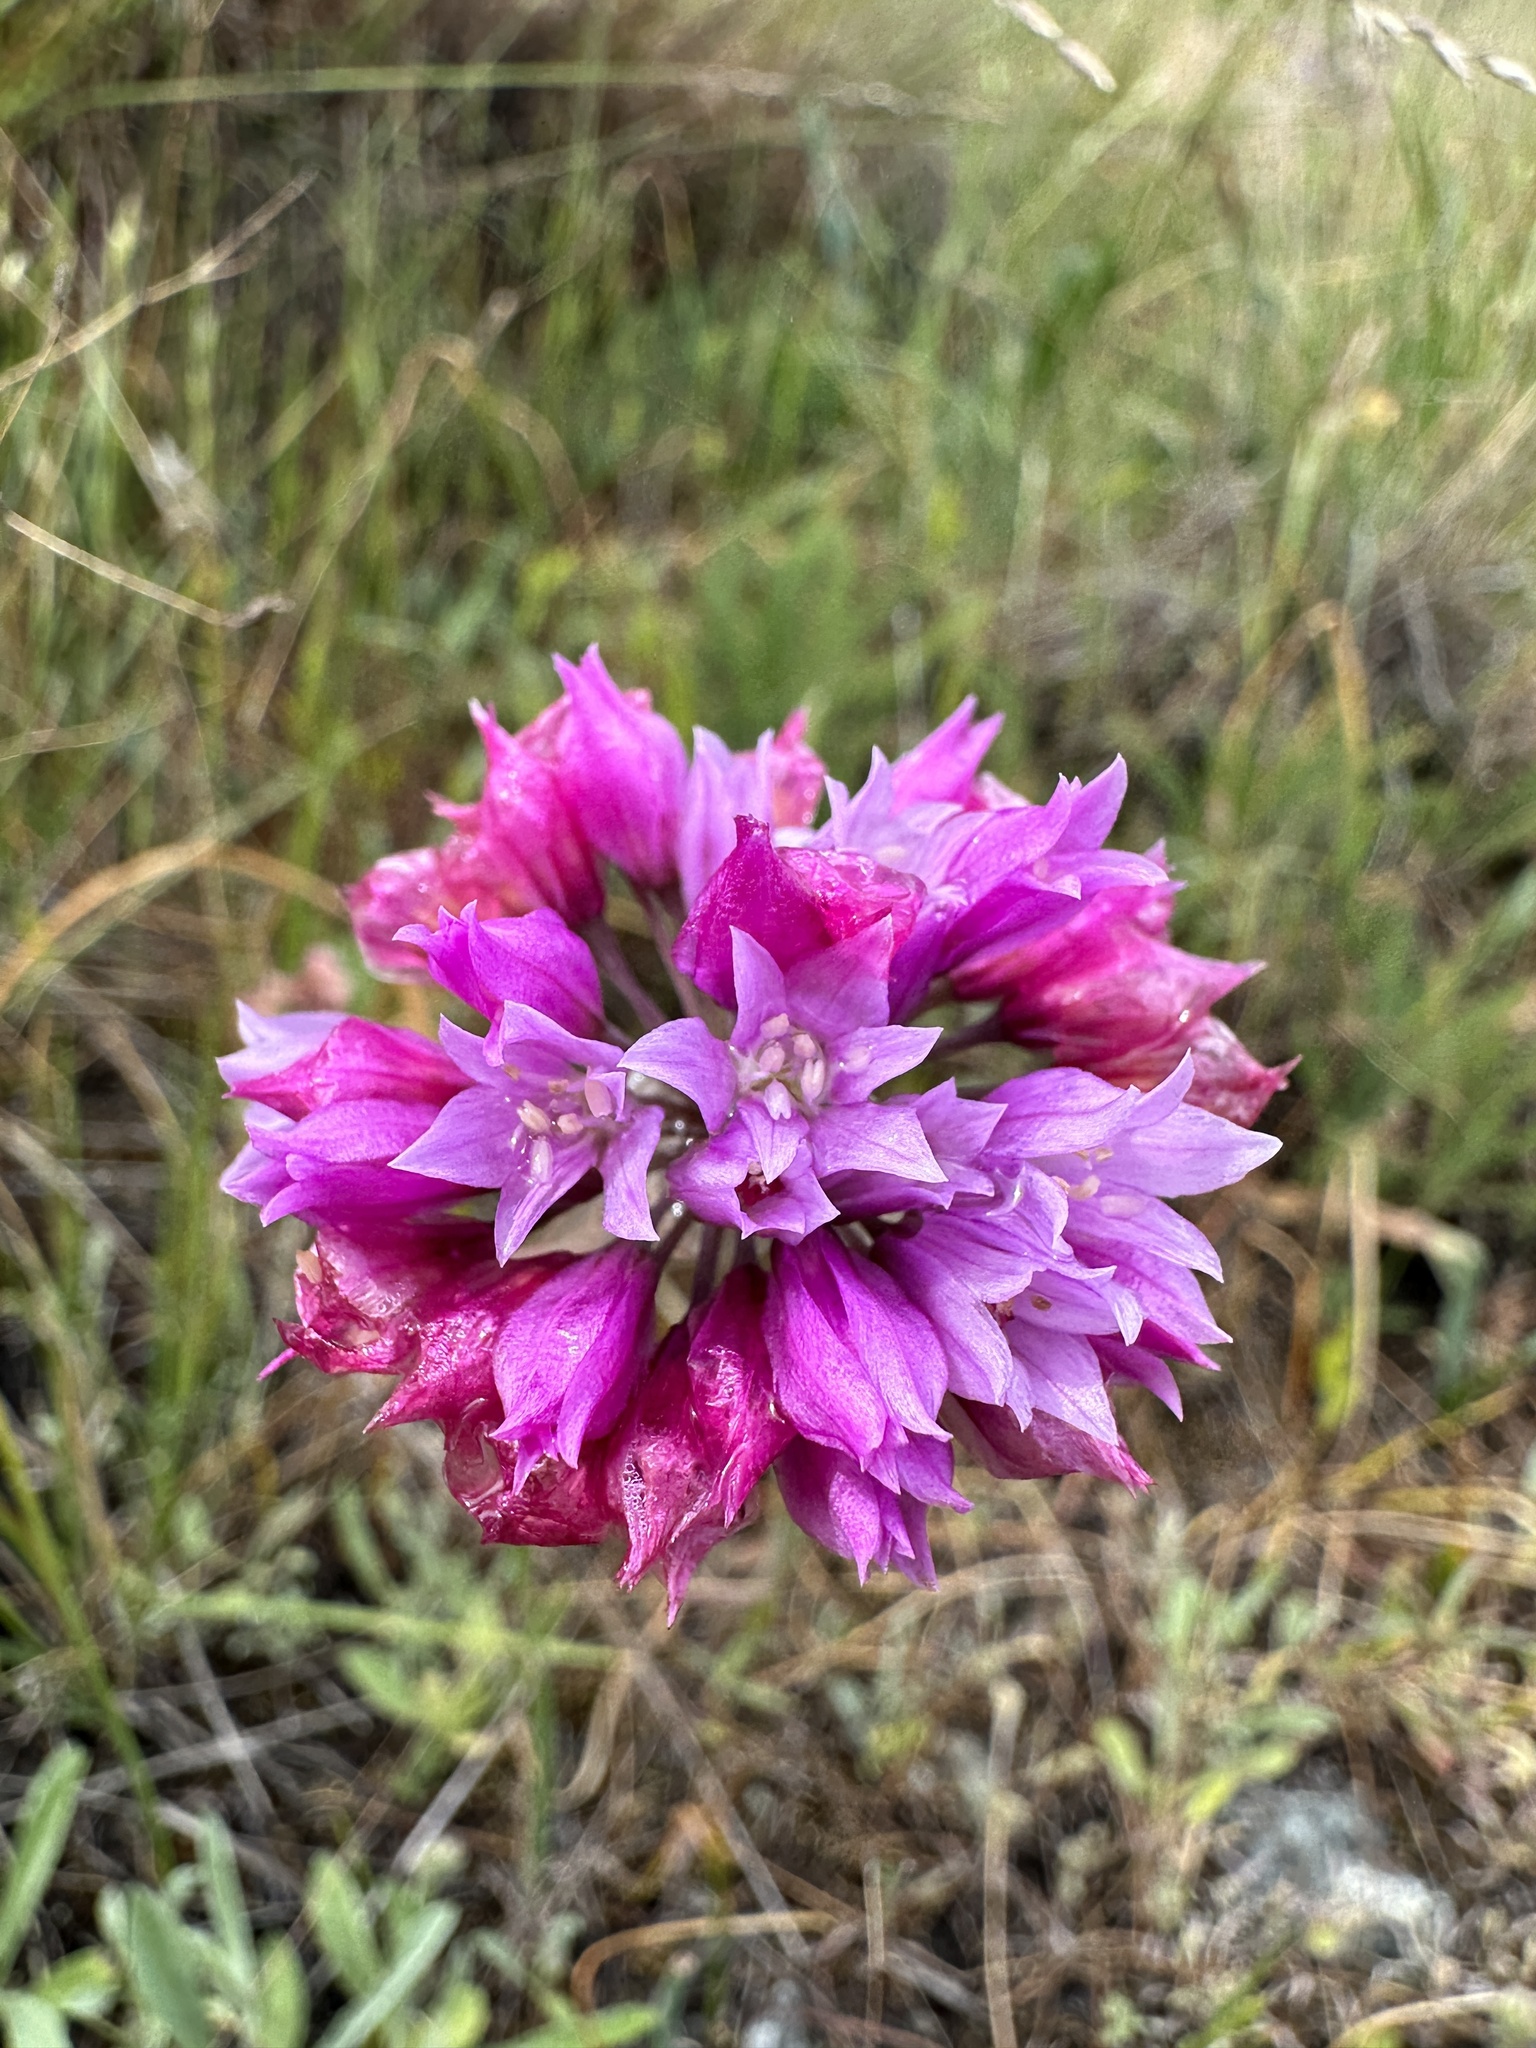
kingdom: Plantae
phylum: Tracheophyta
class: Liliopsida
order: Asparagales
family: Amaryllidaceae
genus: Allium
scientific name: Allium serra
